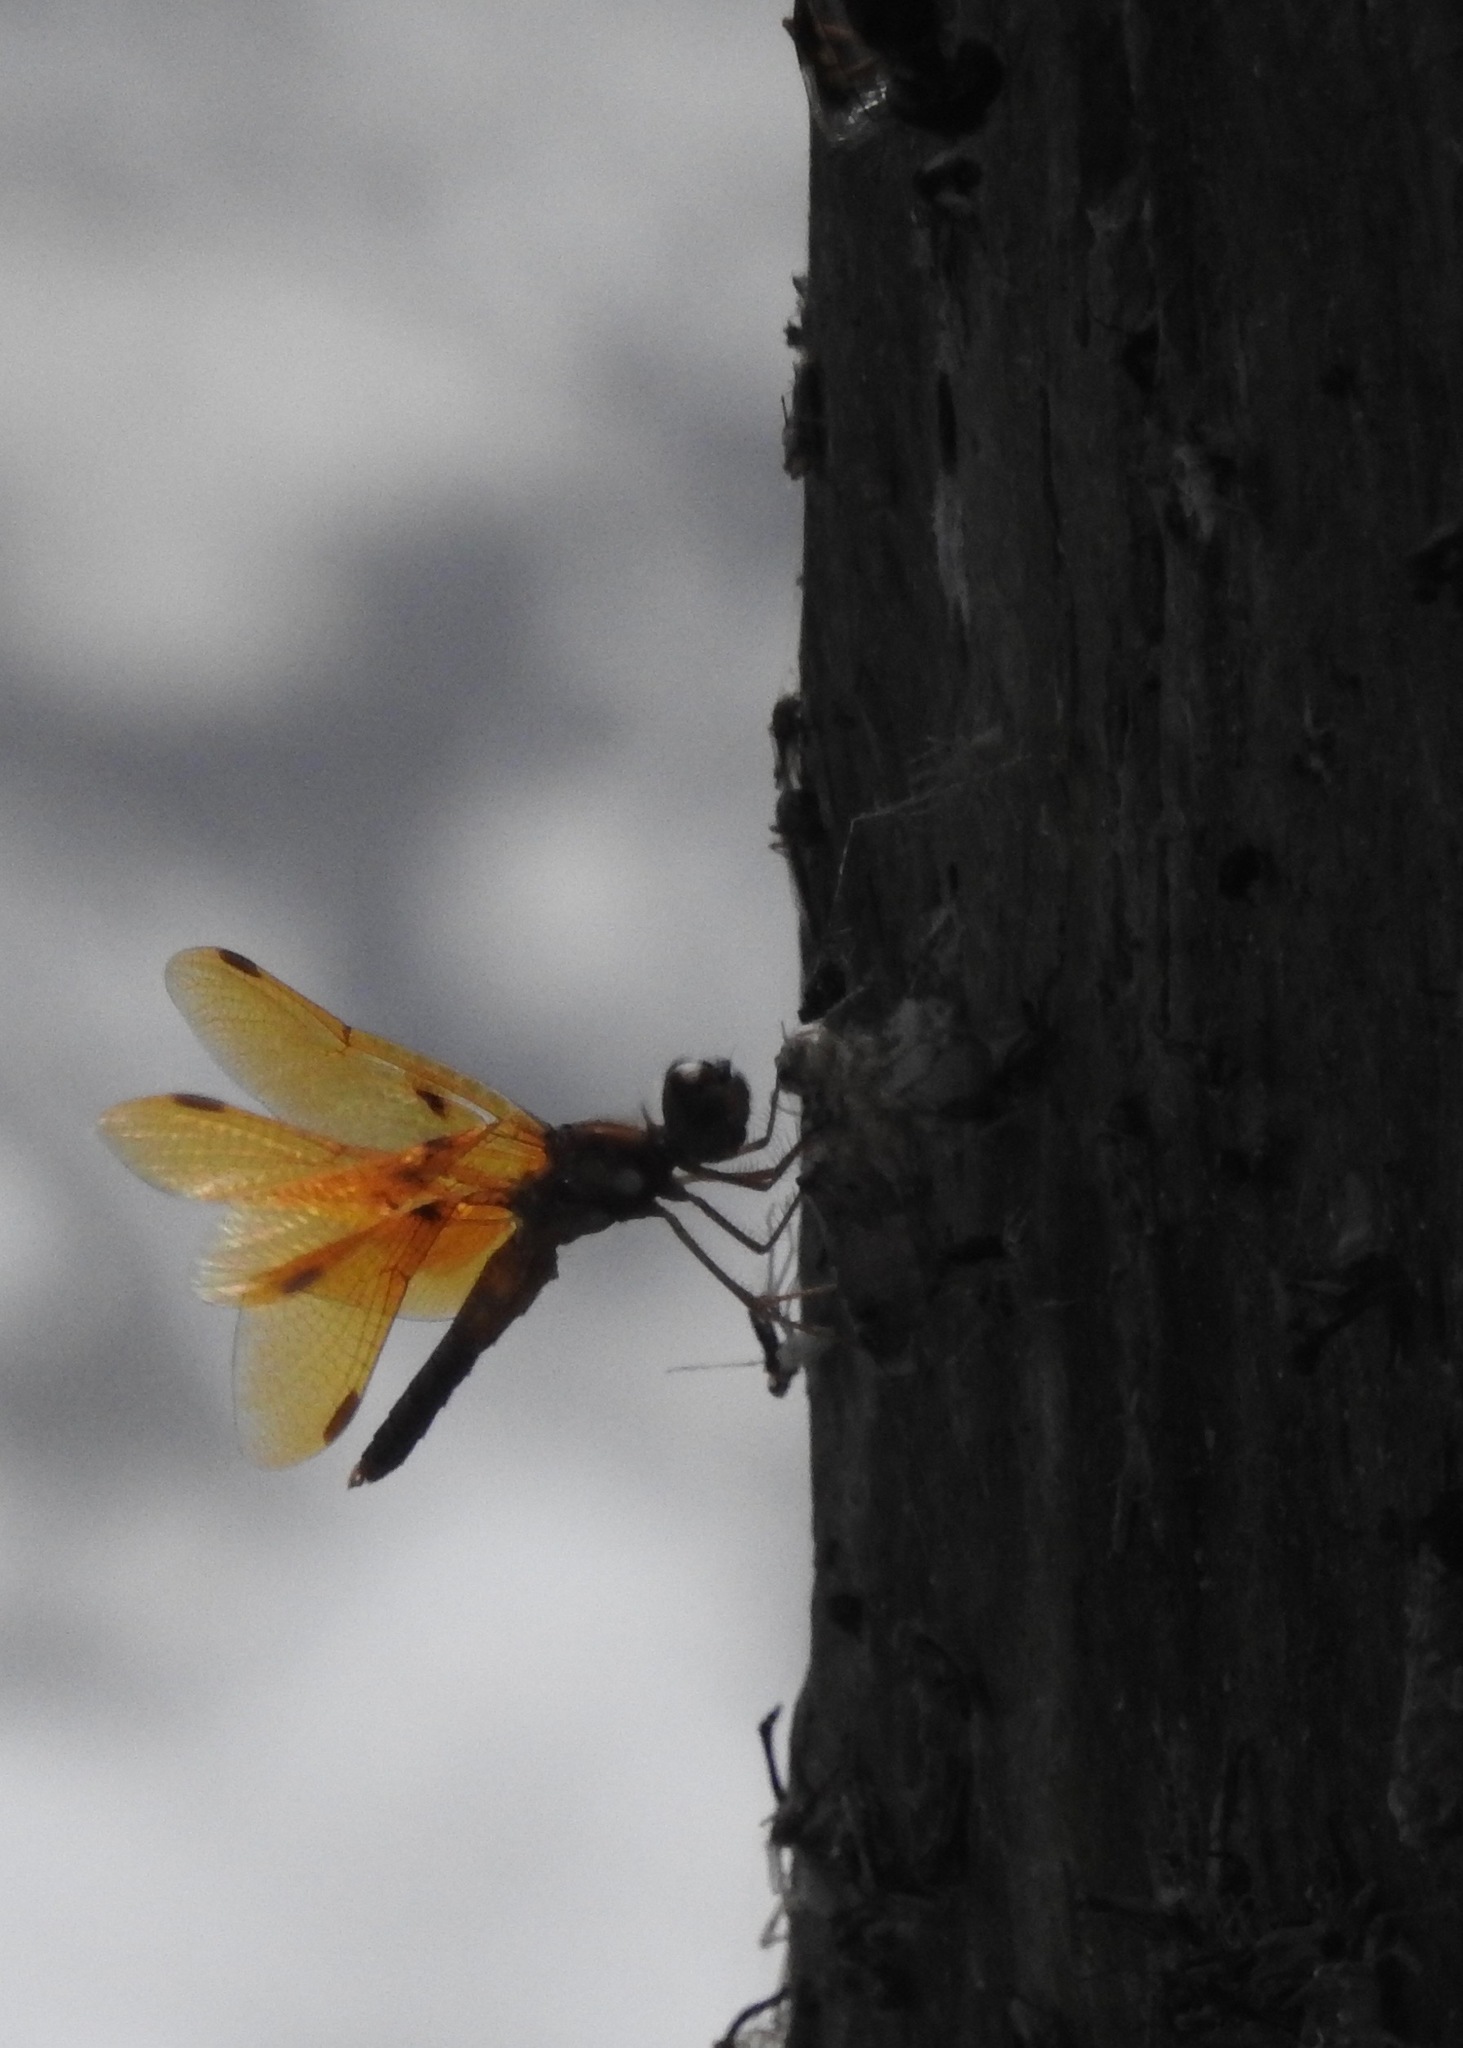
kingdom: Animalia
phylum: Arthropoda
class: Insecta
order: Odonata
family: Libellulidae
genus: Perithemis
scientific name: Perithemis tenera
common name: Eastern amberwing
